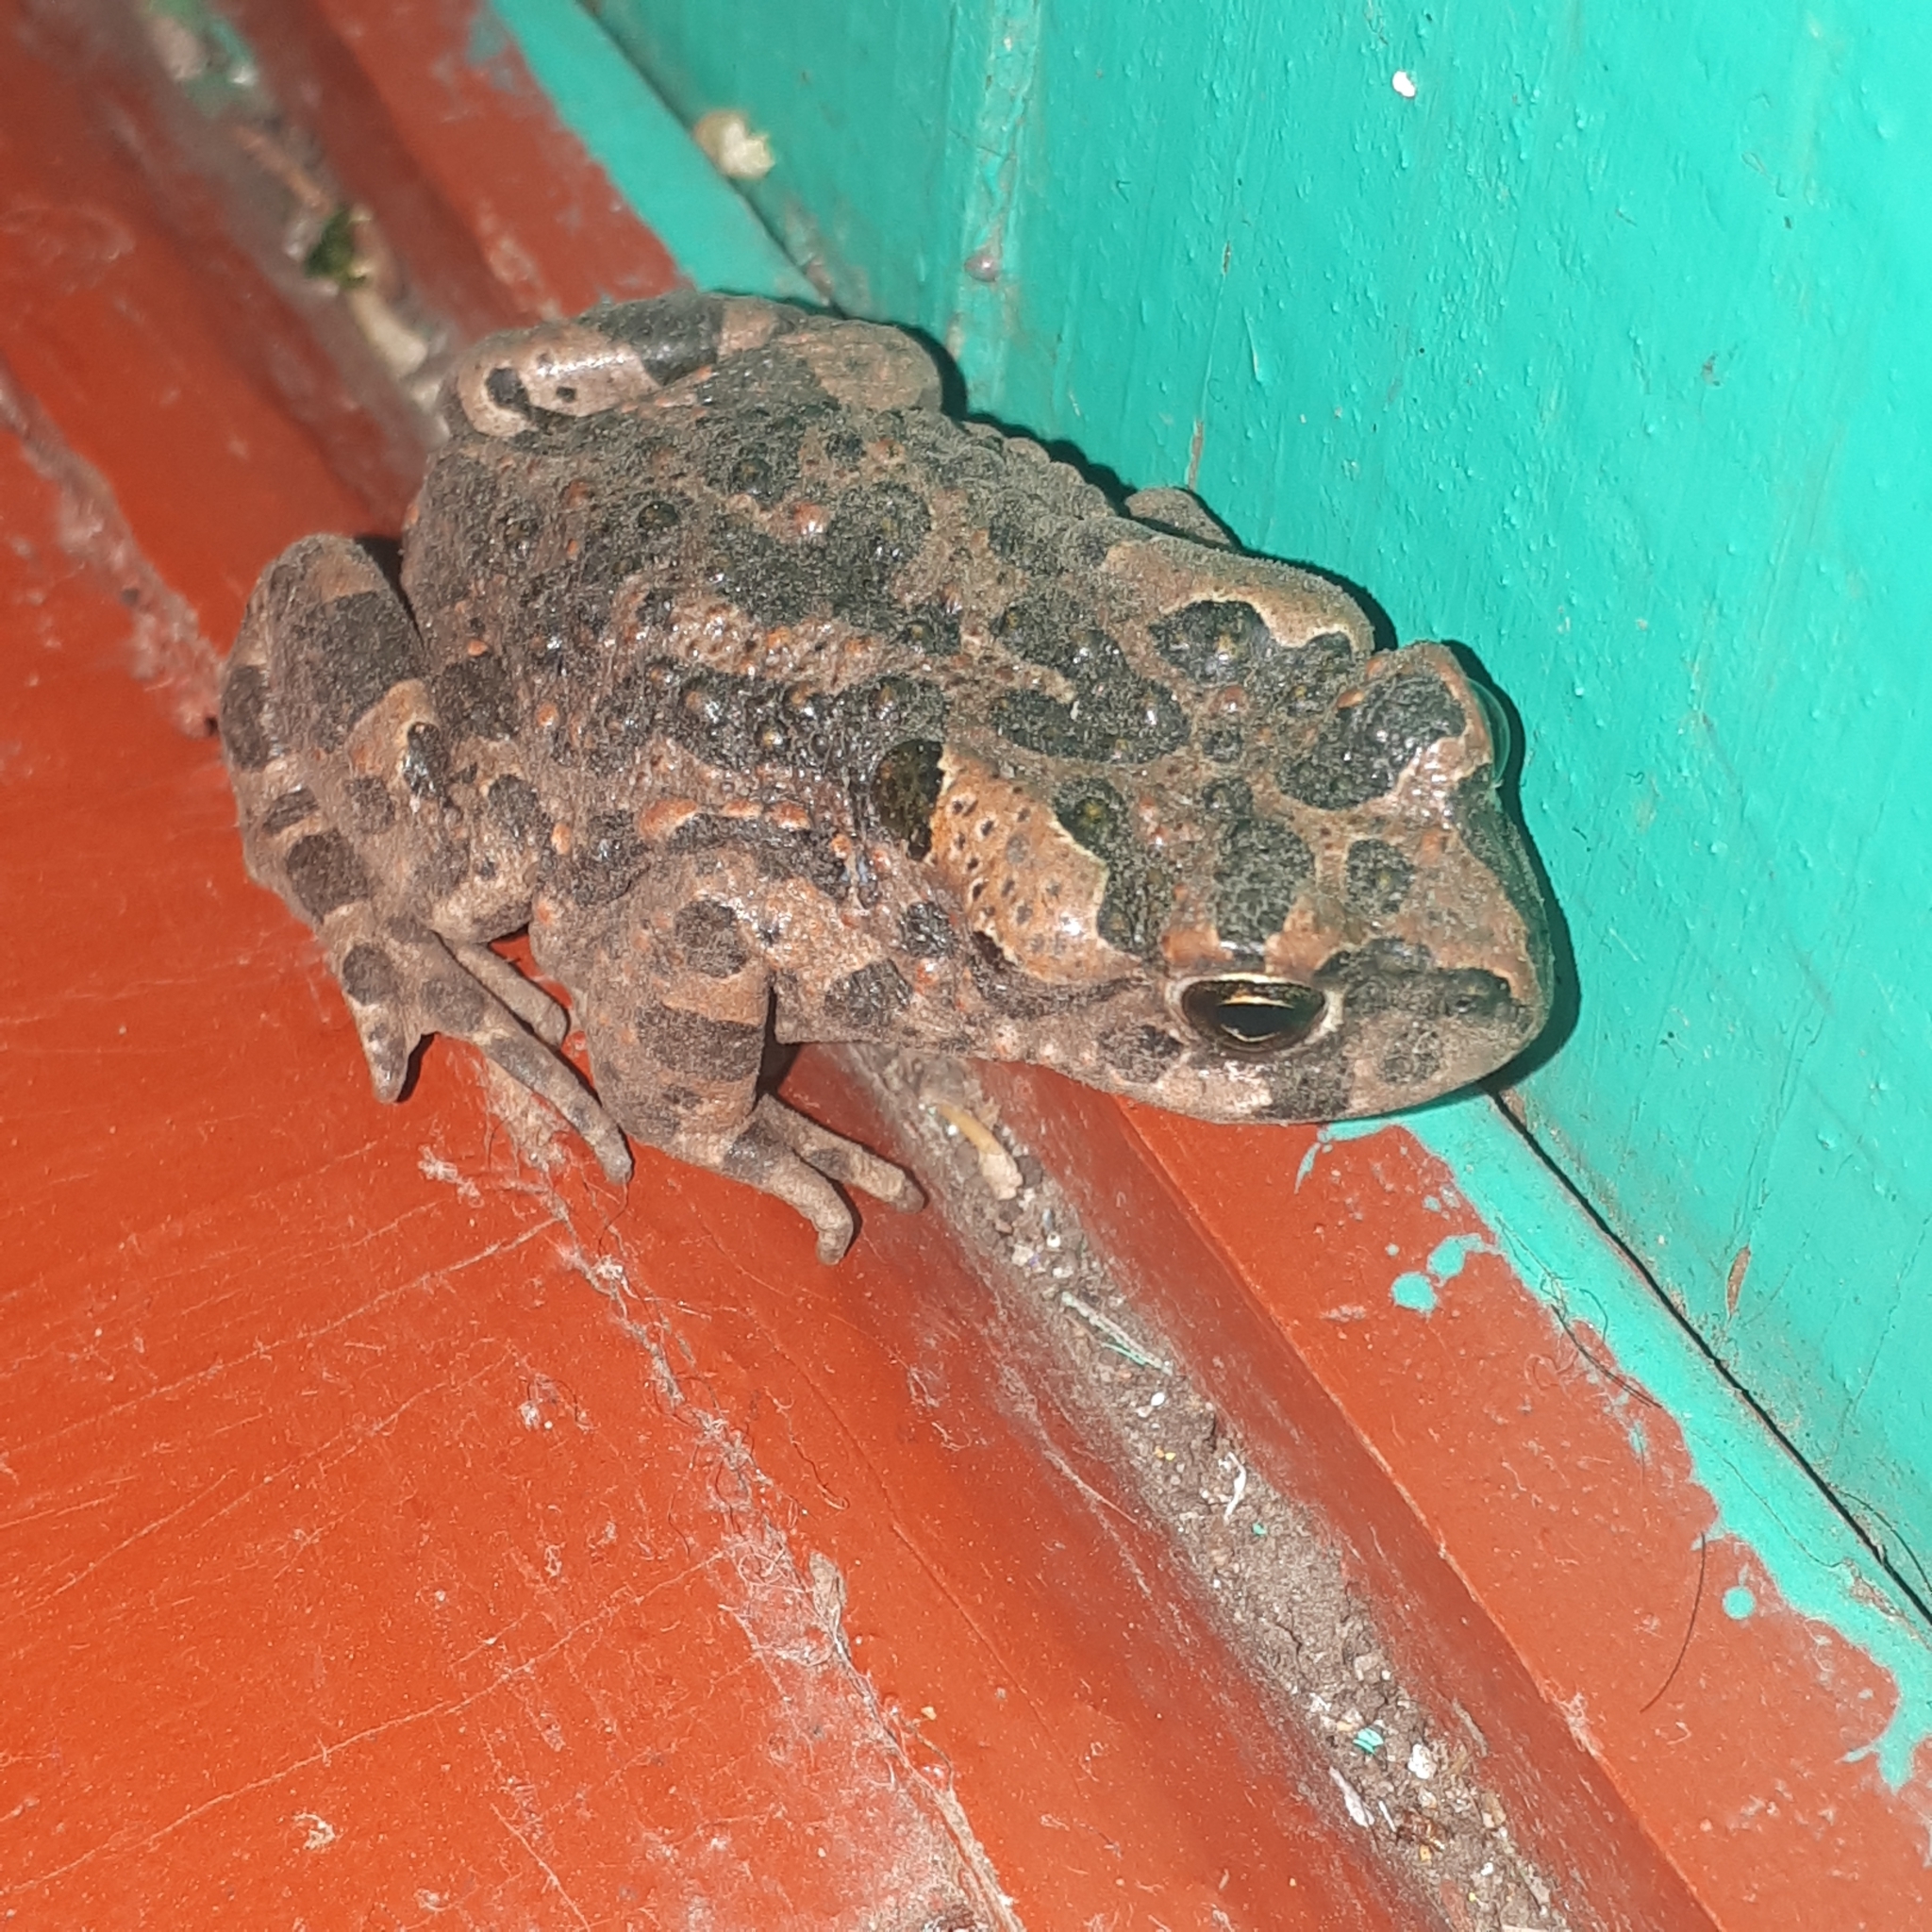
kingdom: Animalia
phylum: Chordata
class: Amphibia
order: Anura
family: Bufonidae
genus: Bufotes
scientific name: Bufotes viridis
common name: European green toad
